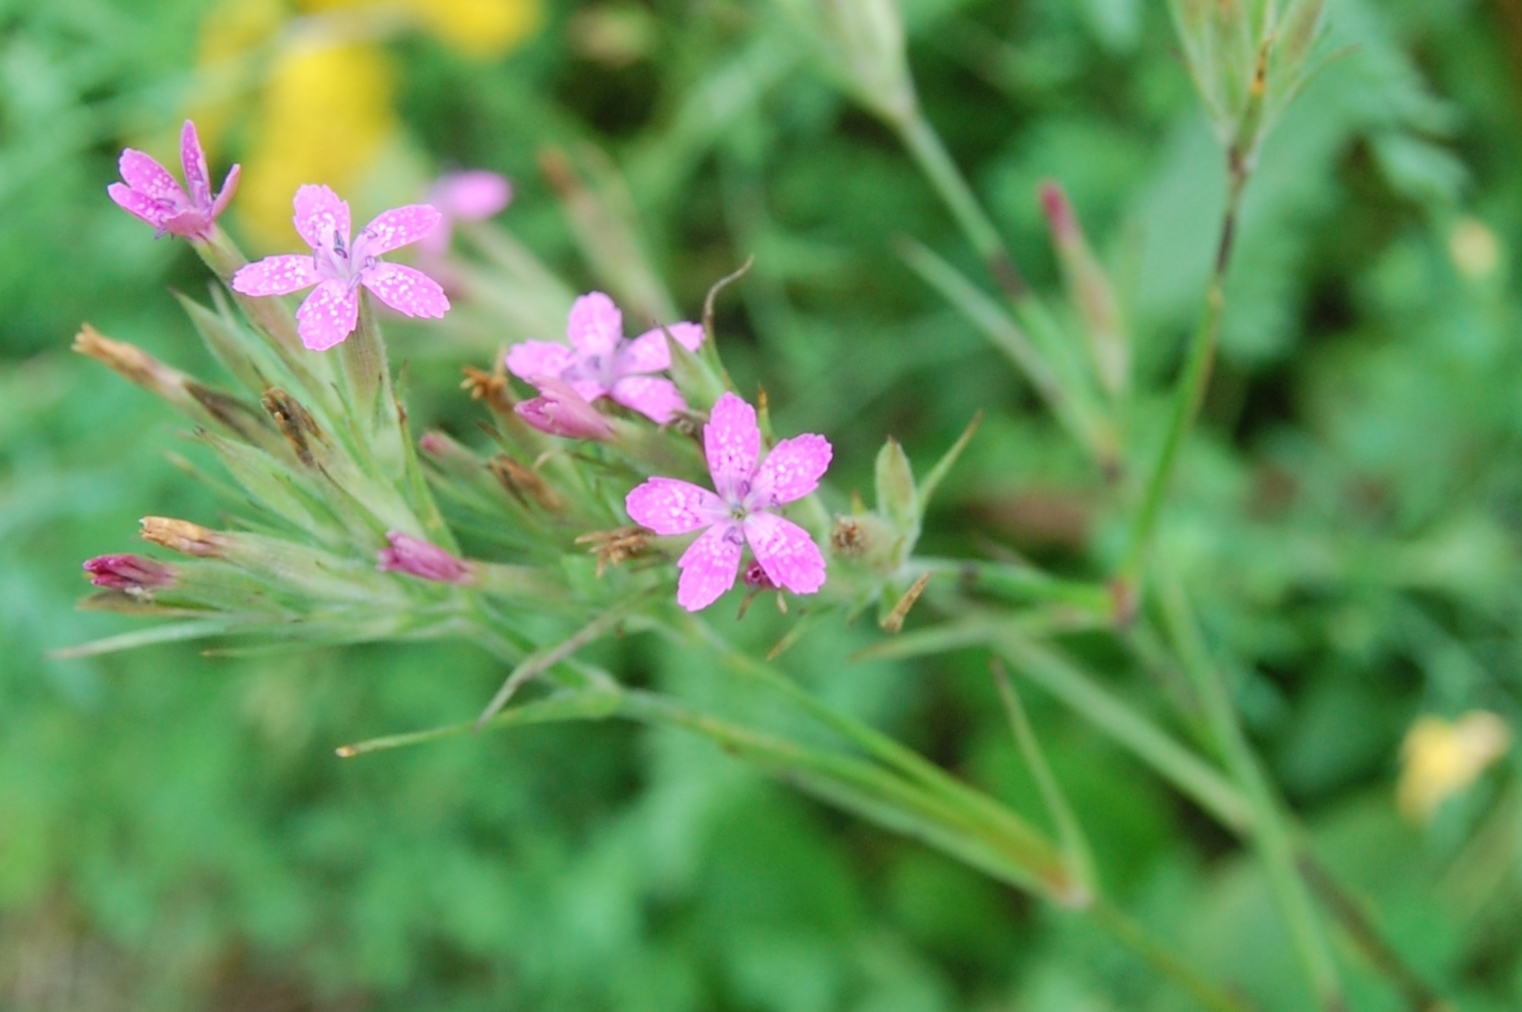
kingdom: Plantae
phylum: Tracheophyta
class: Magnoliopsida
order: Caryophyllales
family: Caryophyllaceae
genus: Dianthus
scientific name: Dianthus armeria
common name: Deptford pink
